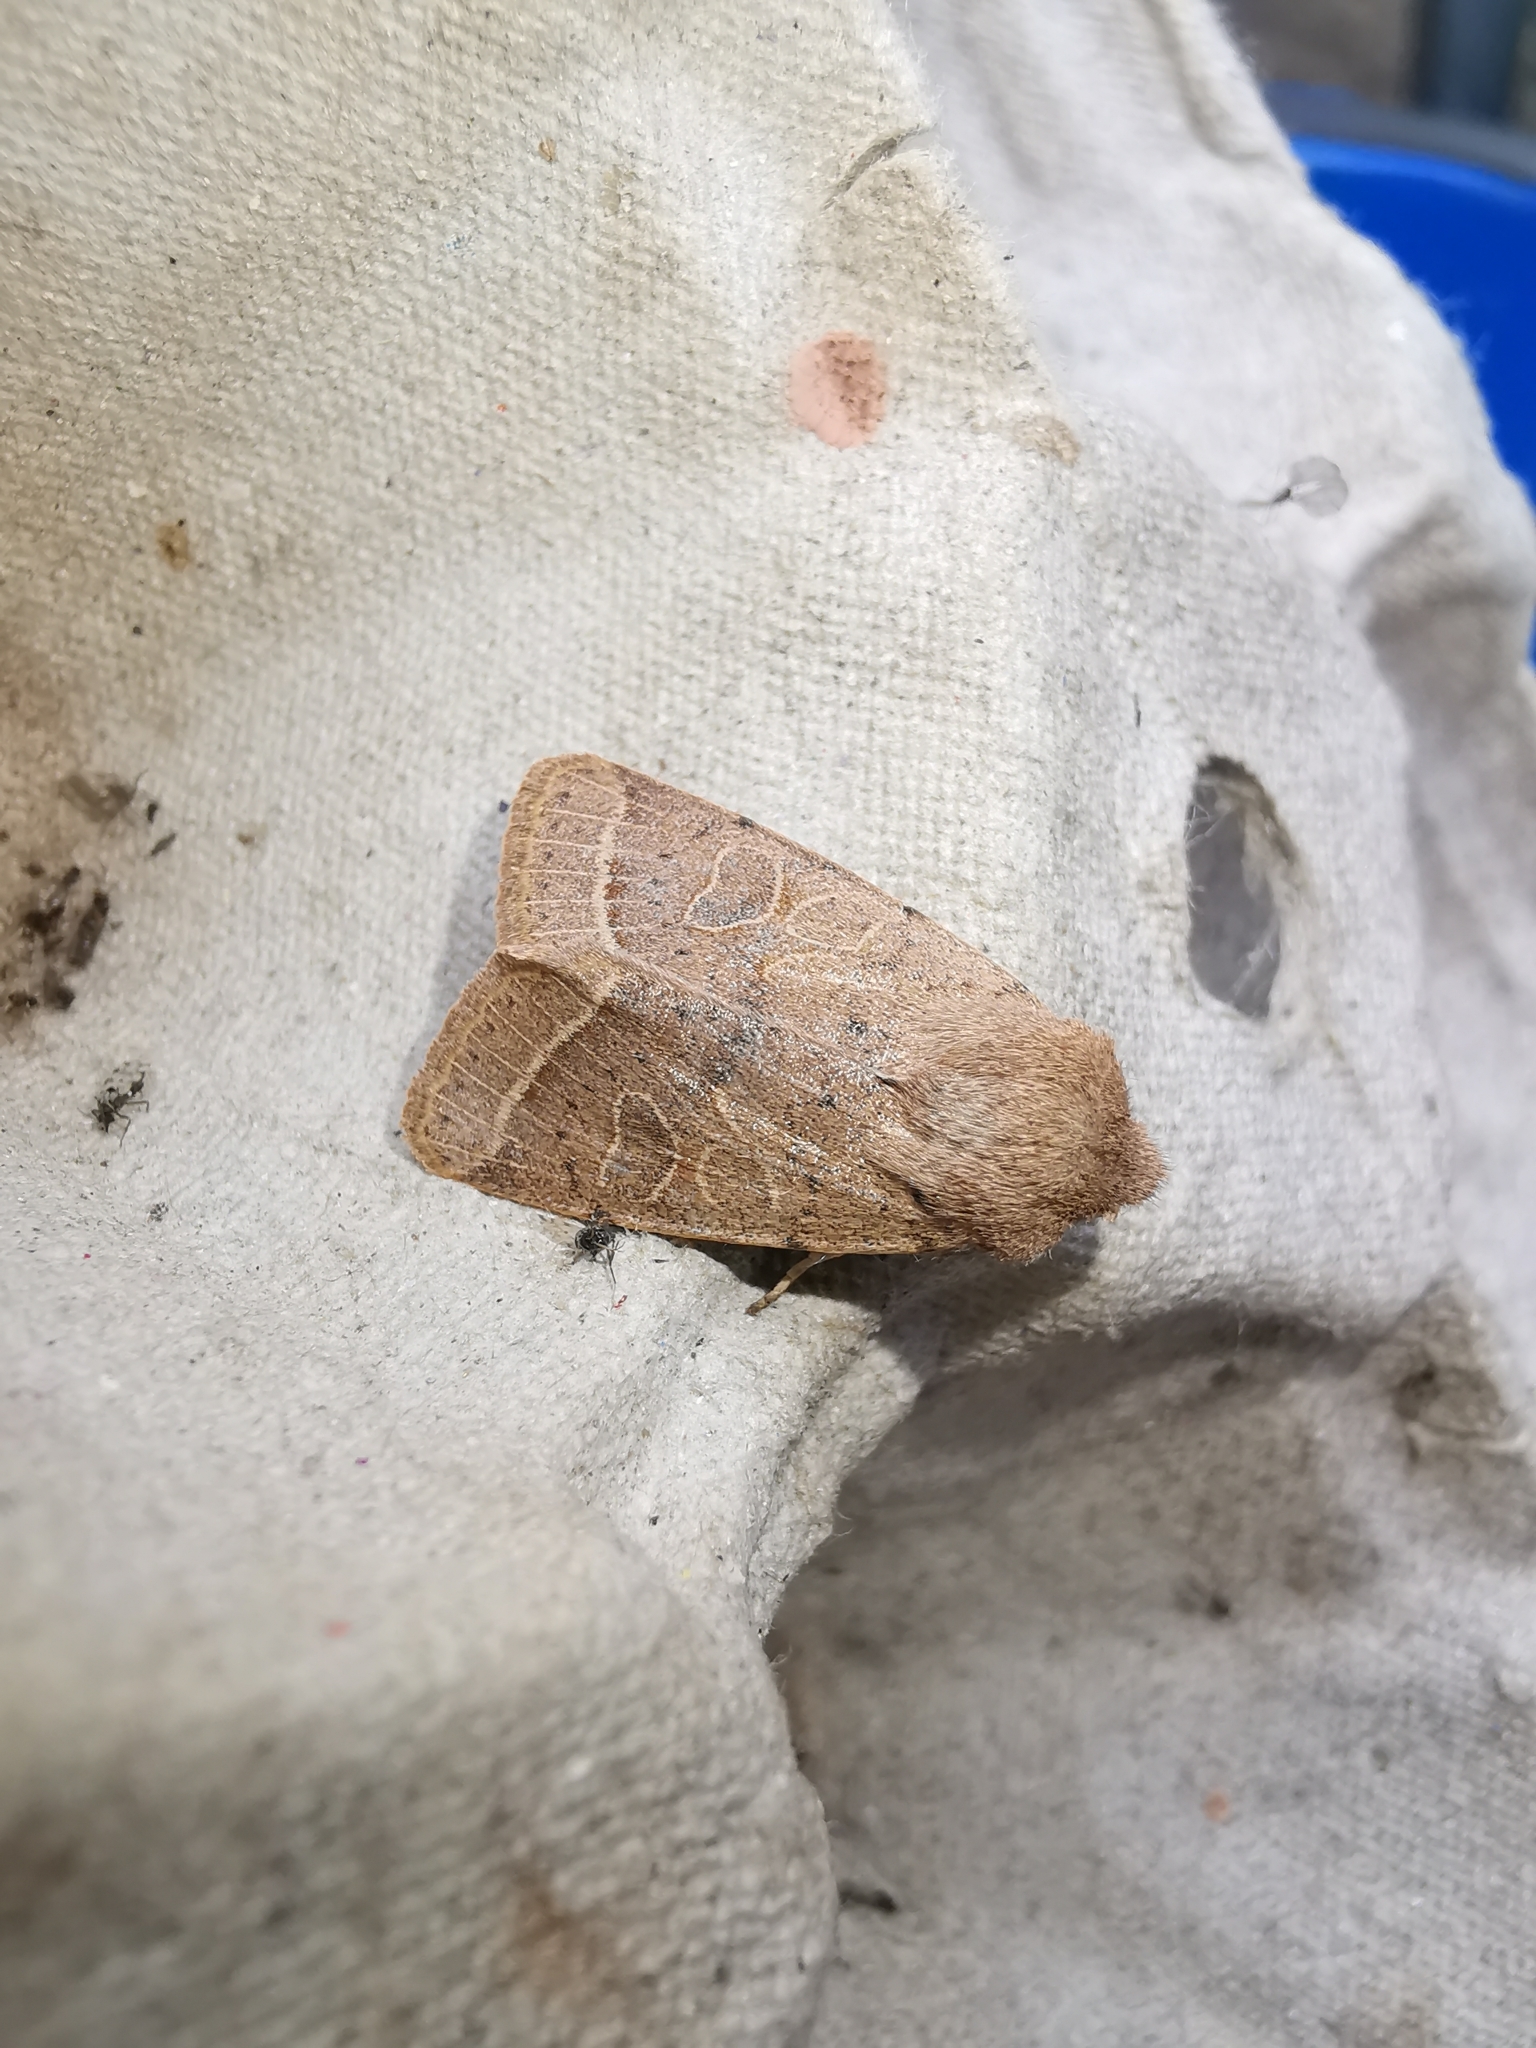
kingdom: Animalia
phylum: Arthropoda
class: Insecta
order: Lepidoptera
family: Noctuidae
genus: Orthosia
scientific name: Orthosia cerasi
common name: Common quaker
